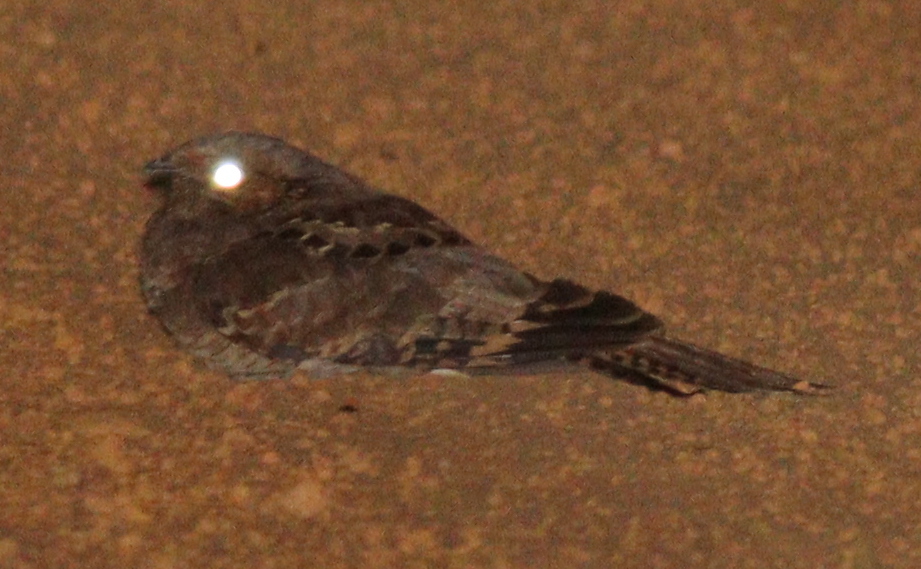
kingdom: Animalia
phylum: Chordata
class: Aves
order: Caprimulgiformes
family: Caprimulgidae
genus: Nyctidromus
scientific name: Nyctidromus albicollis
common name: Pauraque
